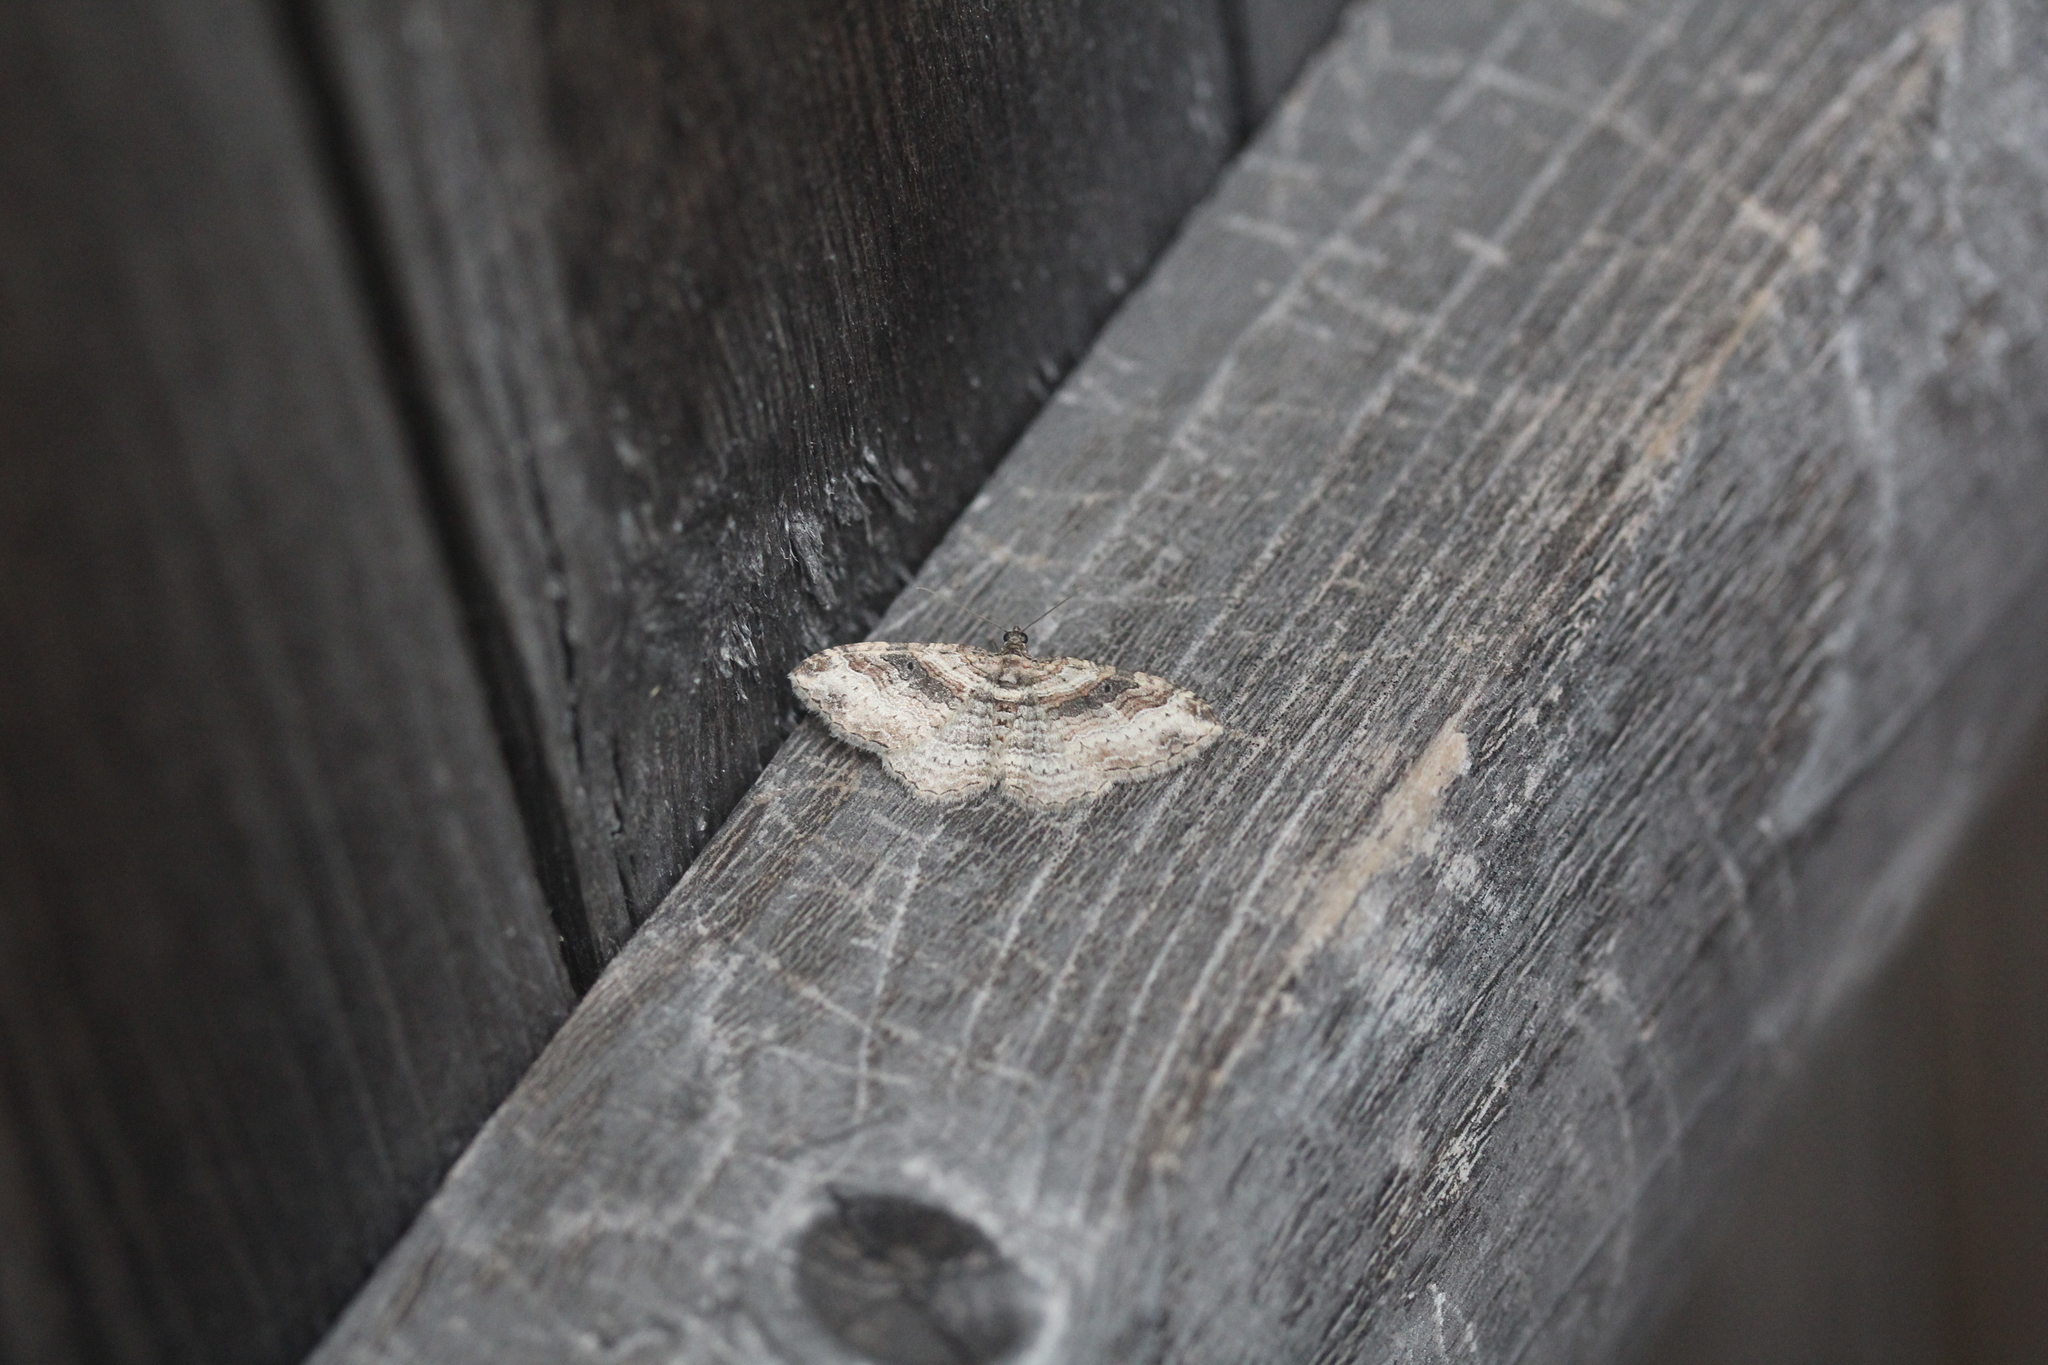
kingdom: Animalia
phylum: Arthropoda
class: Insecta
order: Lepidoptera
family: Geometridae
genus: Costaconvexa
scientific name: Costaconvexa centrostrigaria
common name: Bent-line carpet
